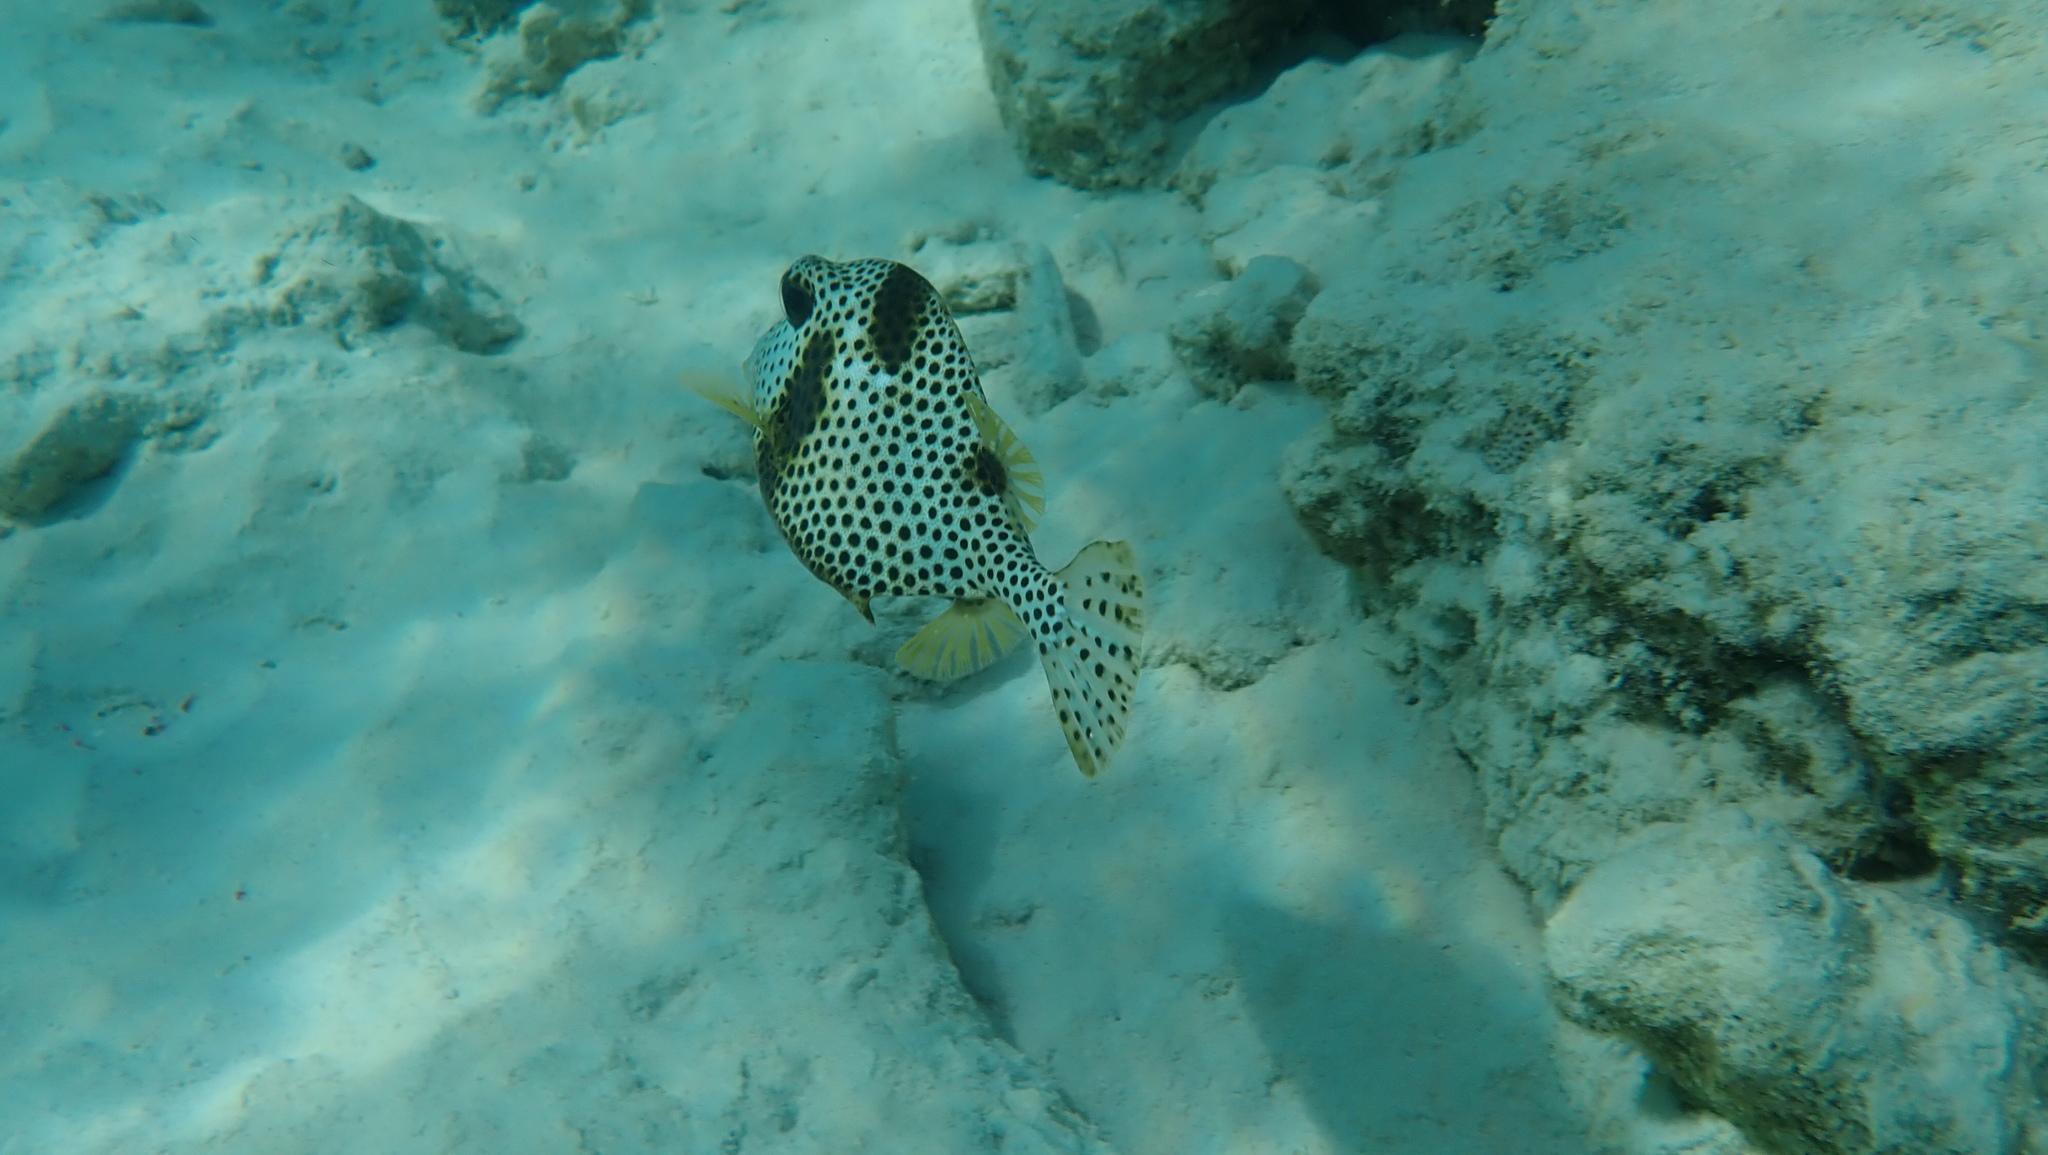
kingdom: Animalia
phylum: Chordata
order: Tetraodontiformes
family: Ostraciidae
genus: Lactophrys
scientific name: Lactophrys bicaudalis
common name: Spotted trunkfish
